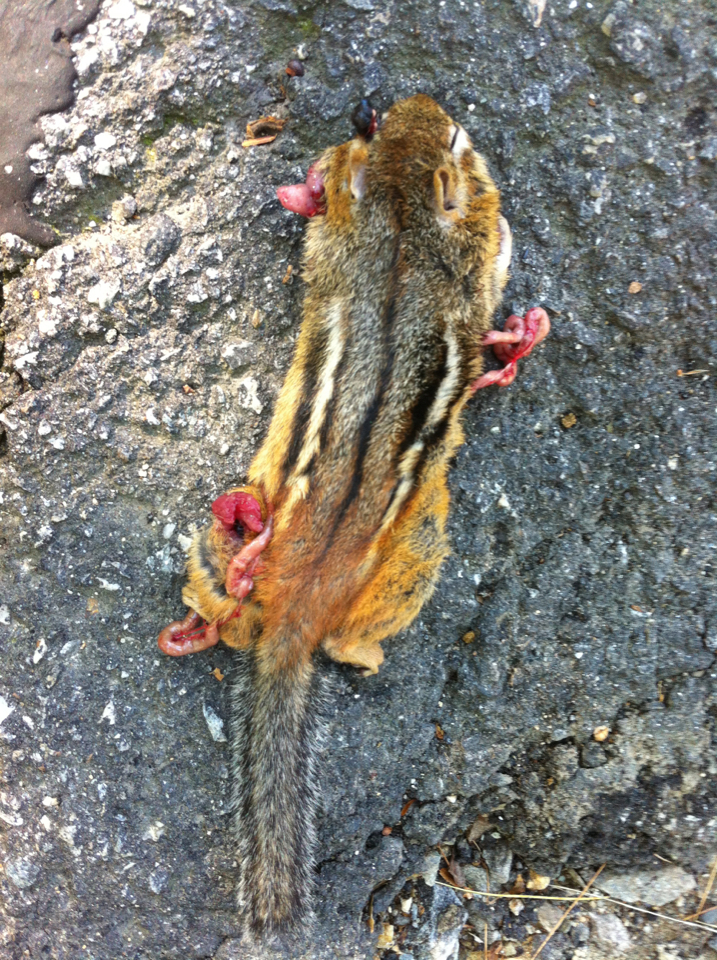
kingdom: Animalia
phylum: Chordata
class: Mammalia
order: Rodentia
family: Sciuridae
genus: Tamias
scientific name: Tamias striatus
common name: Eastern chipmunk
